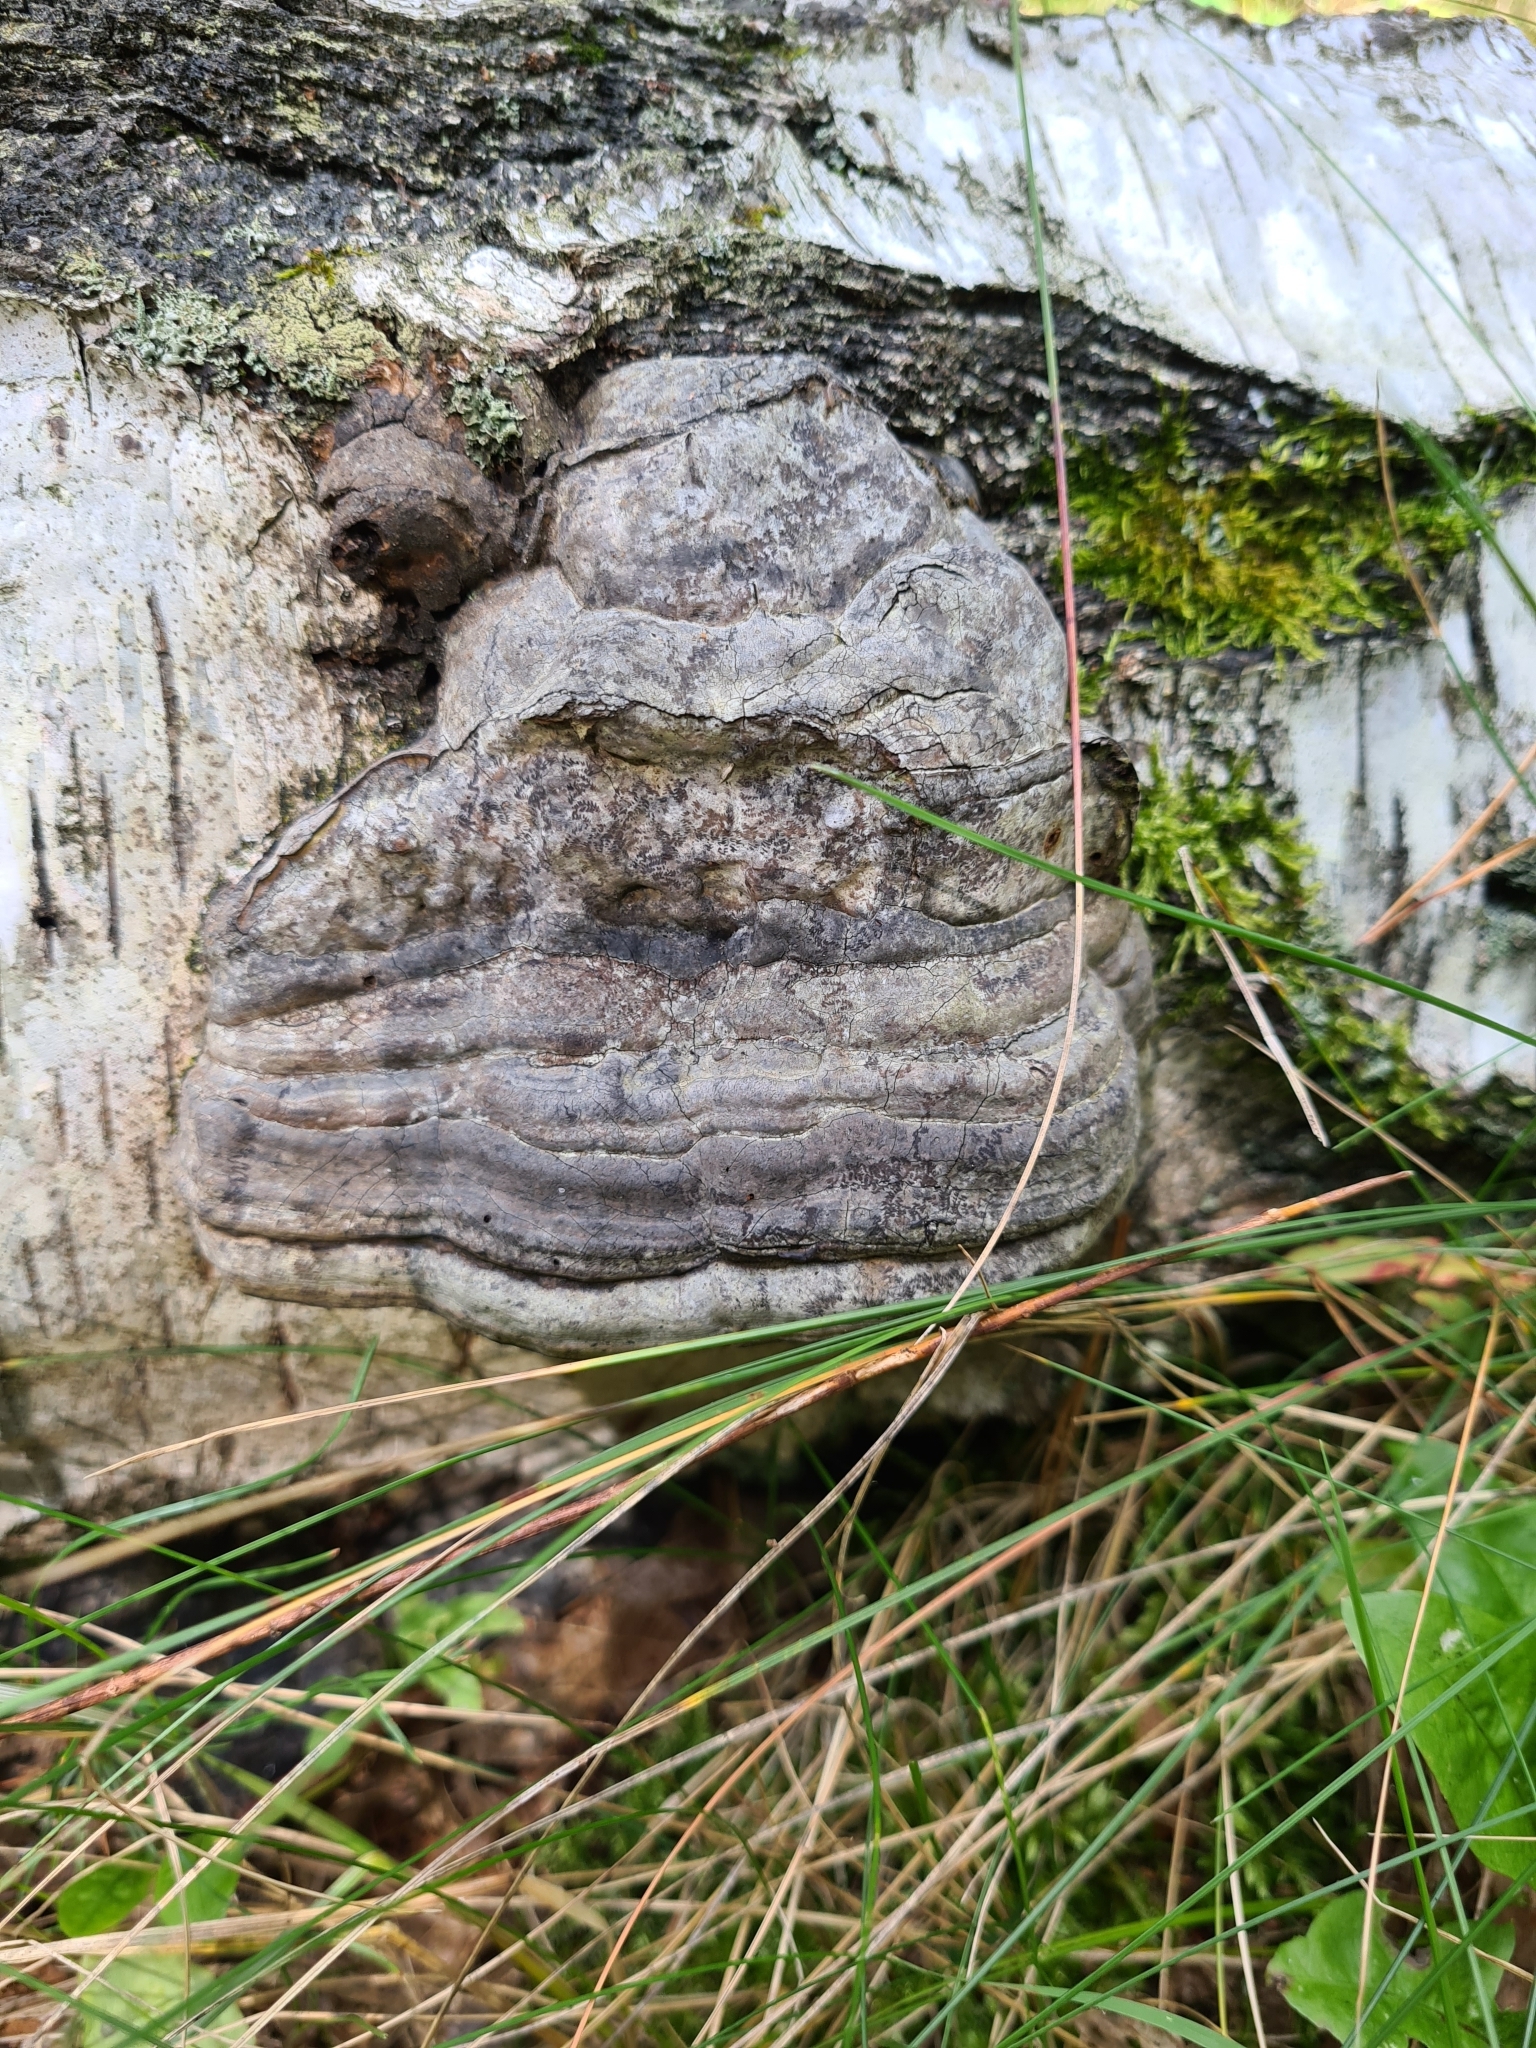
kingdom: Fungi
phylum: Basidiomycota
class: Agaricomycetes
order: Polyporales
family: Polyporaceae
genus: Fomes
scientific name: Fomes fomentarius
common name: Hoof fungus
